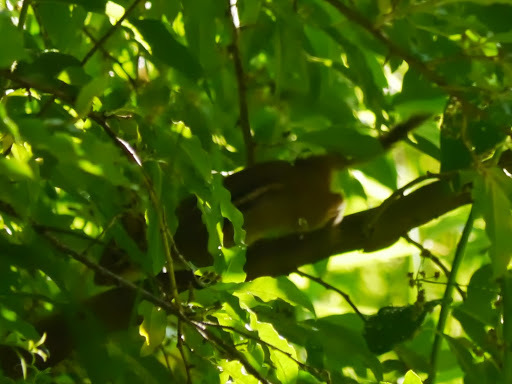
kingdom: Animalia
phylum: Chordata
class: Mammalia
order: Rodentia
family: Sciuridae
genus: Tamias
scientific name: Tamias striatus
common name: Eastern chipmunk
